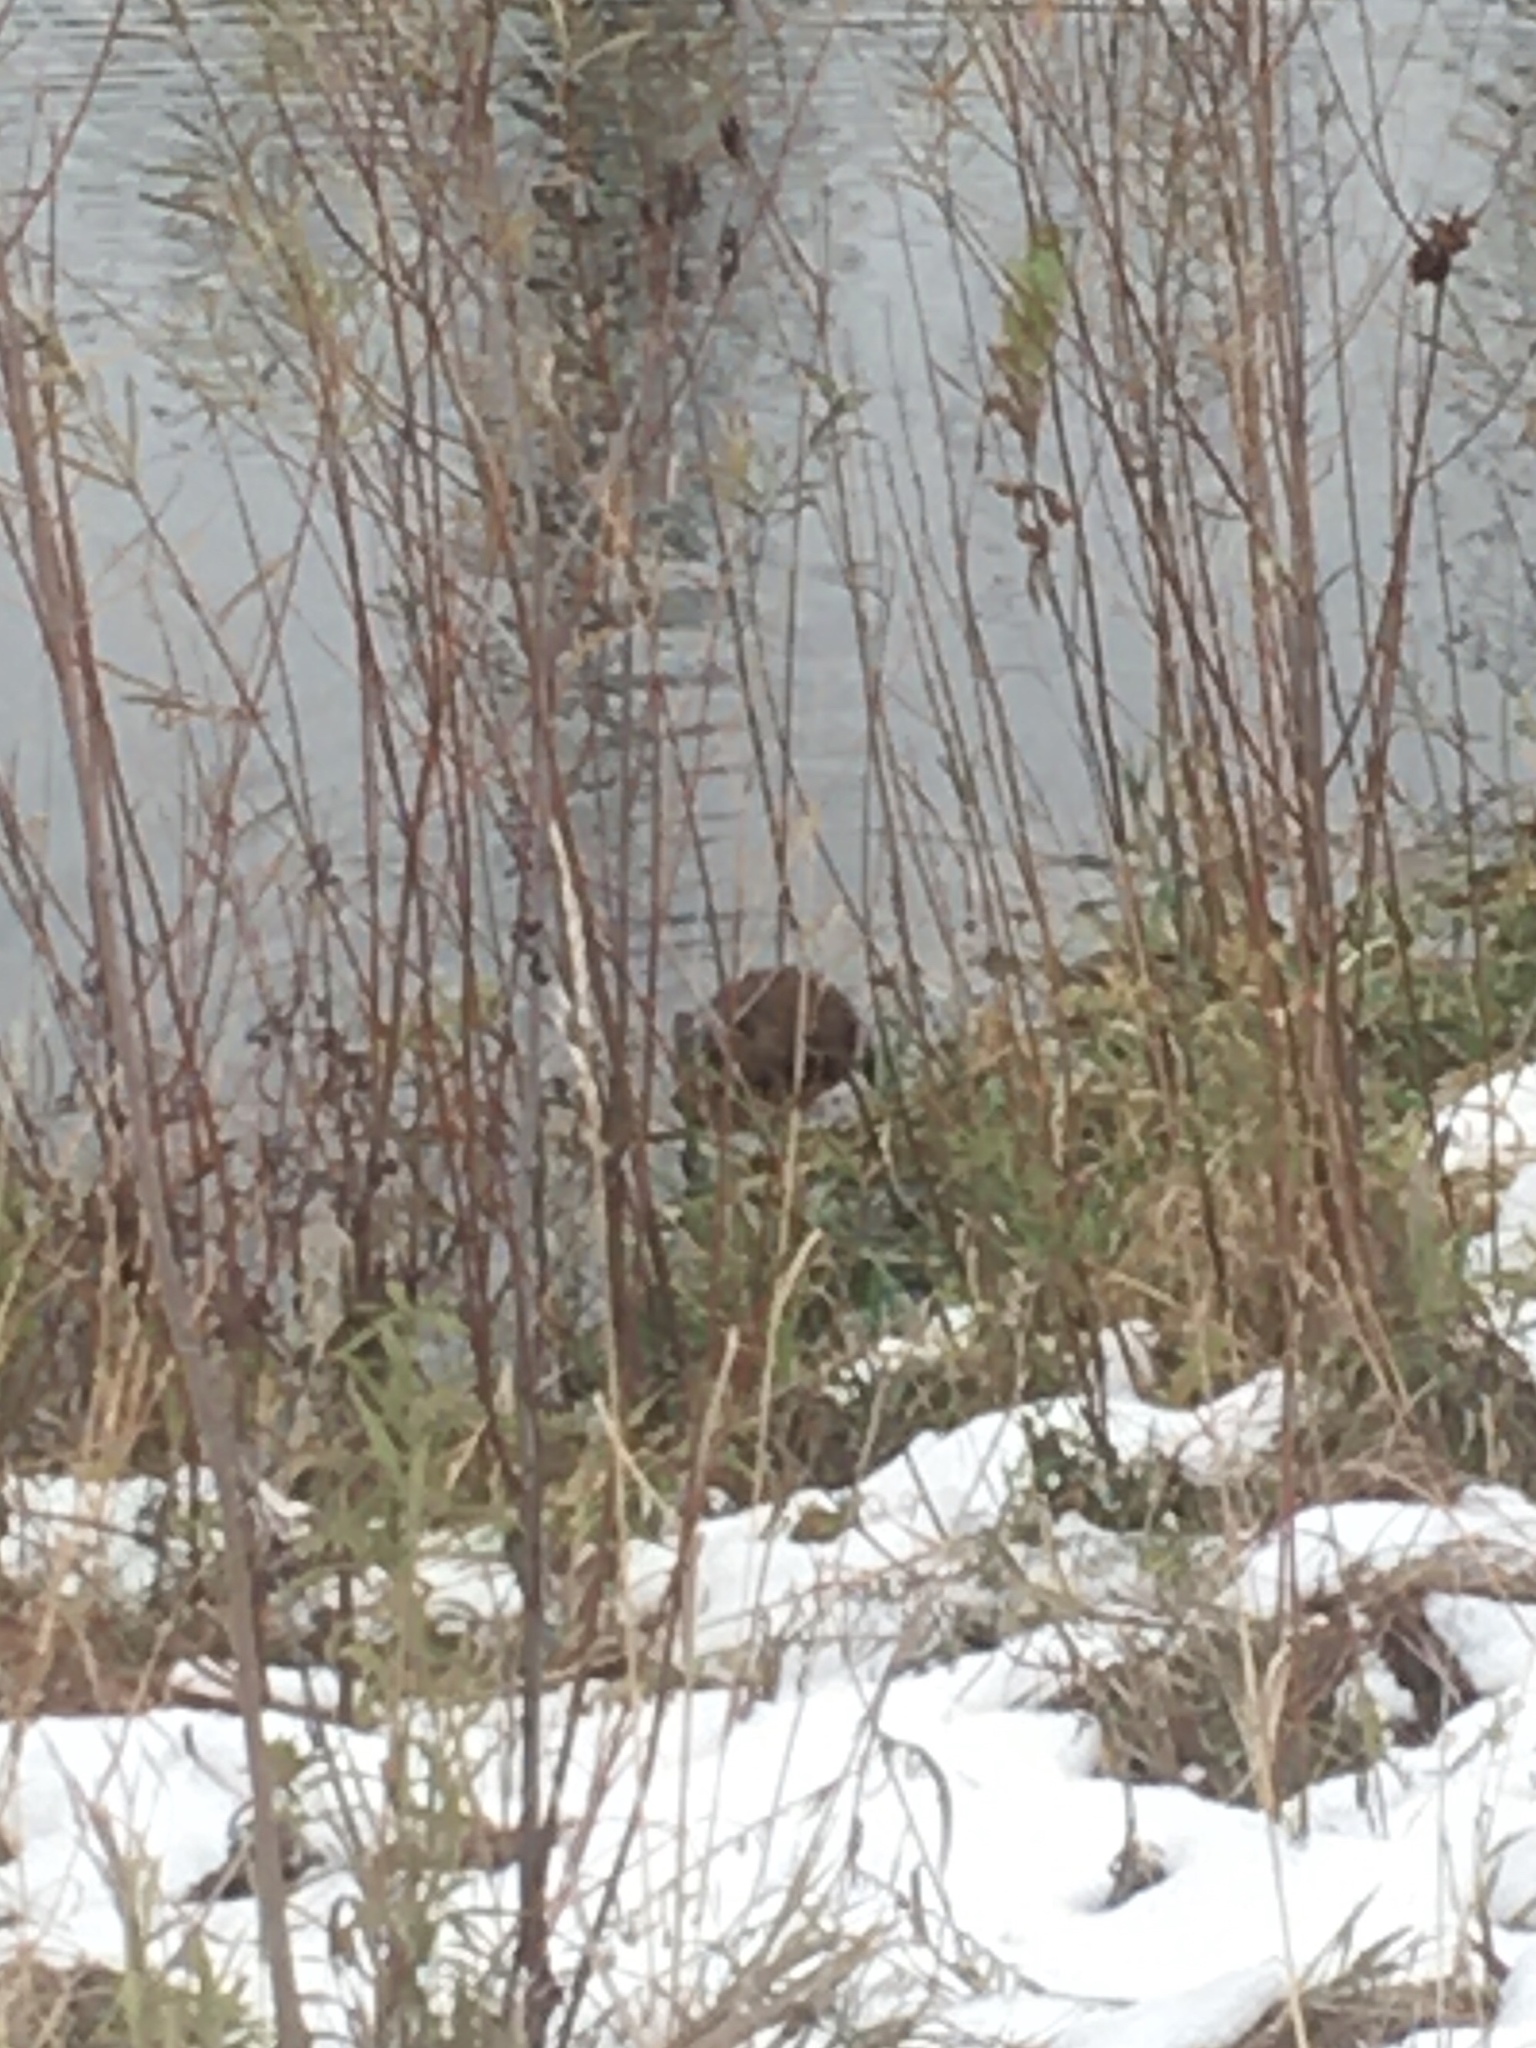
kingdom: Animalia
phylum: Chordata
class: Mammalia
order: Rodentia
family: Cricetidae
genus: Ondatra
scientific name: Ondatra zibethicus
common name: Muskrat
